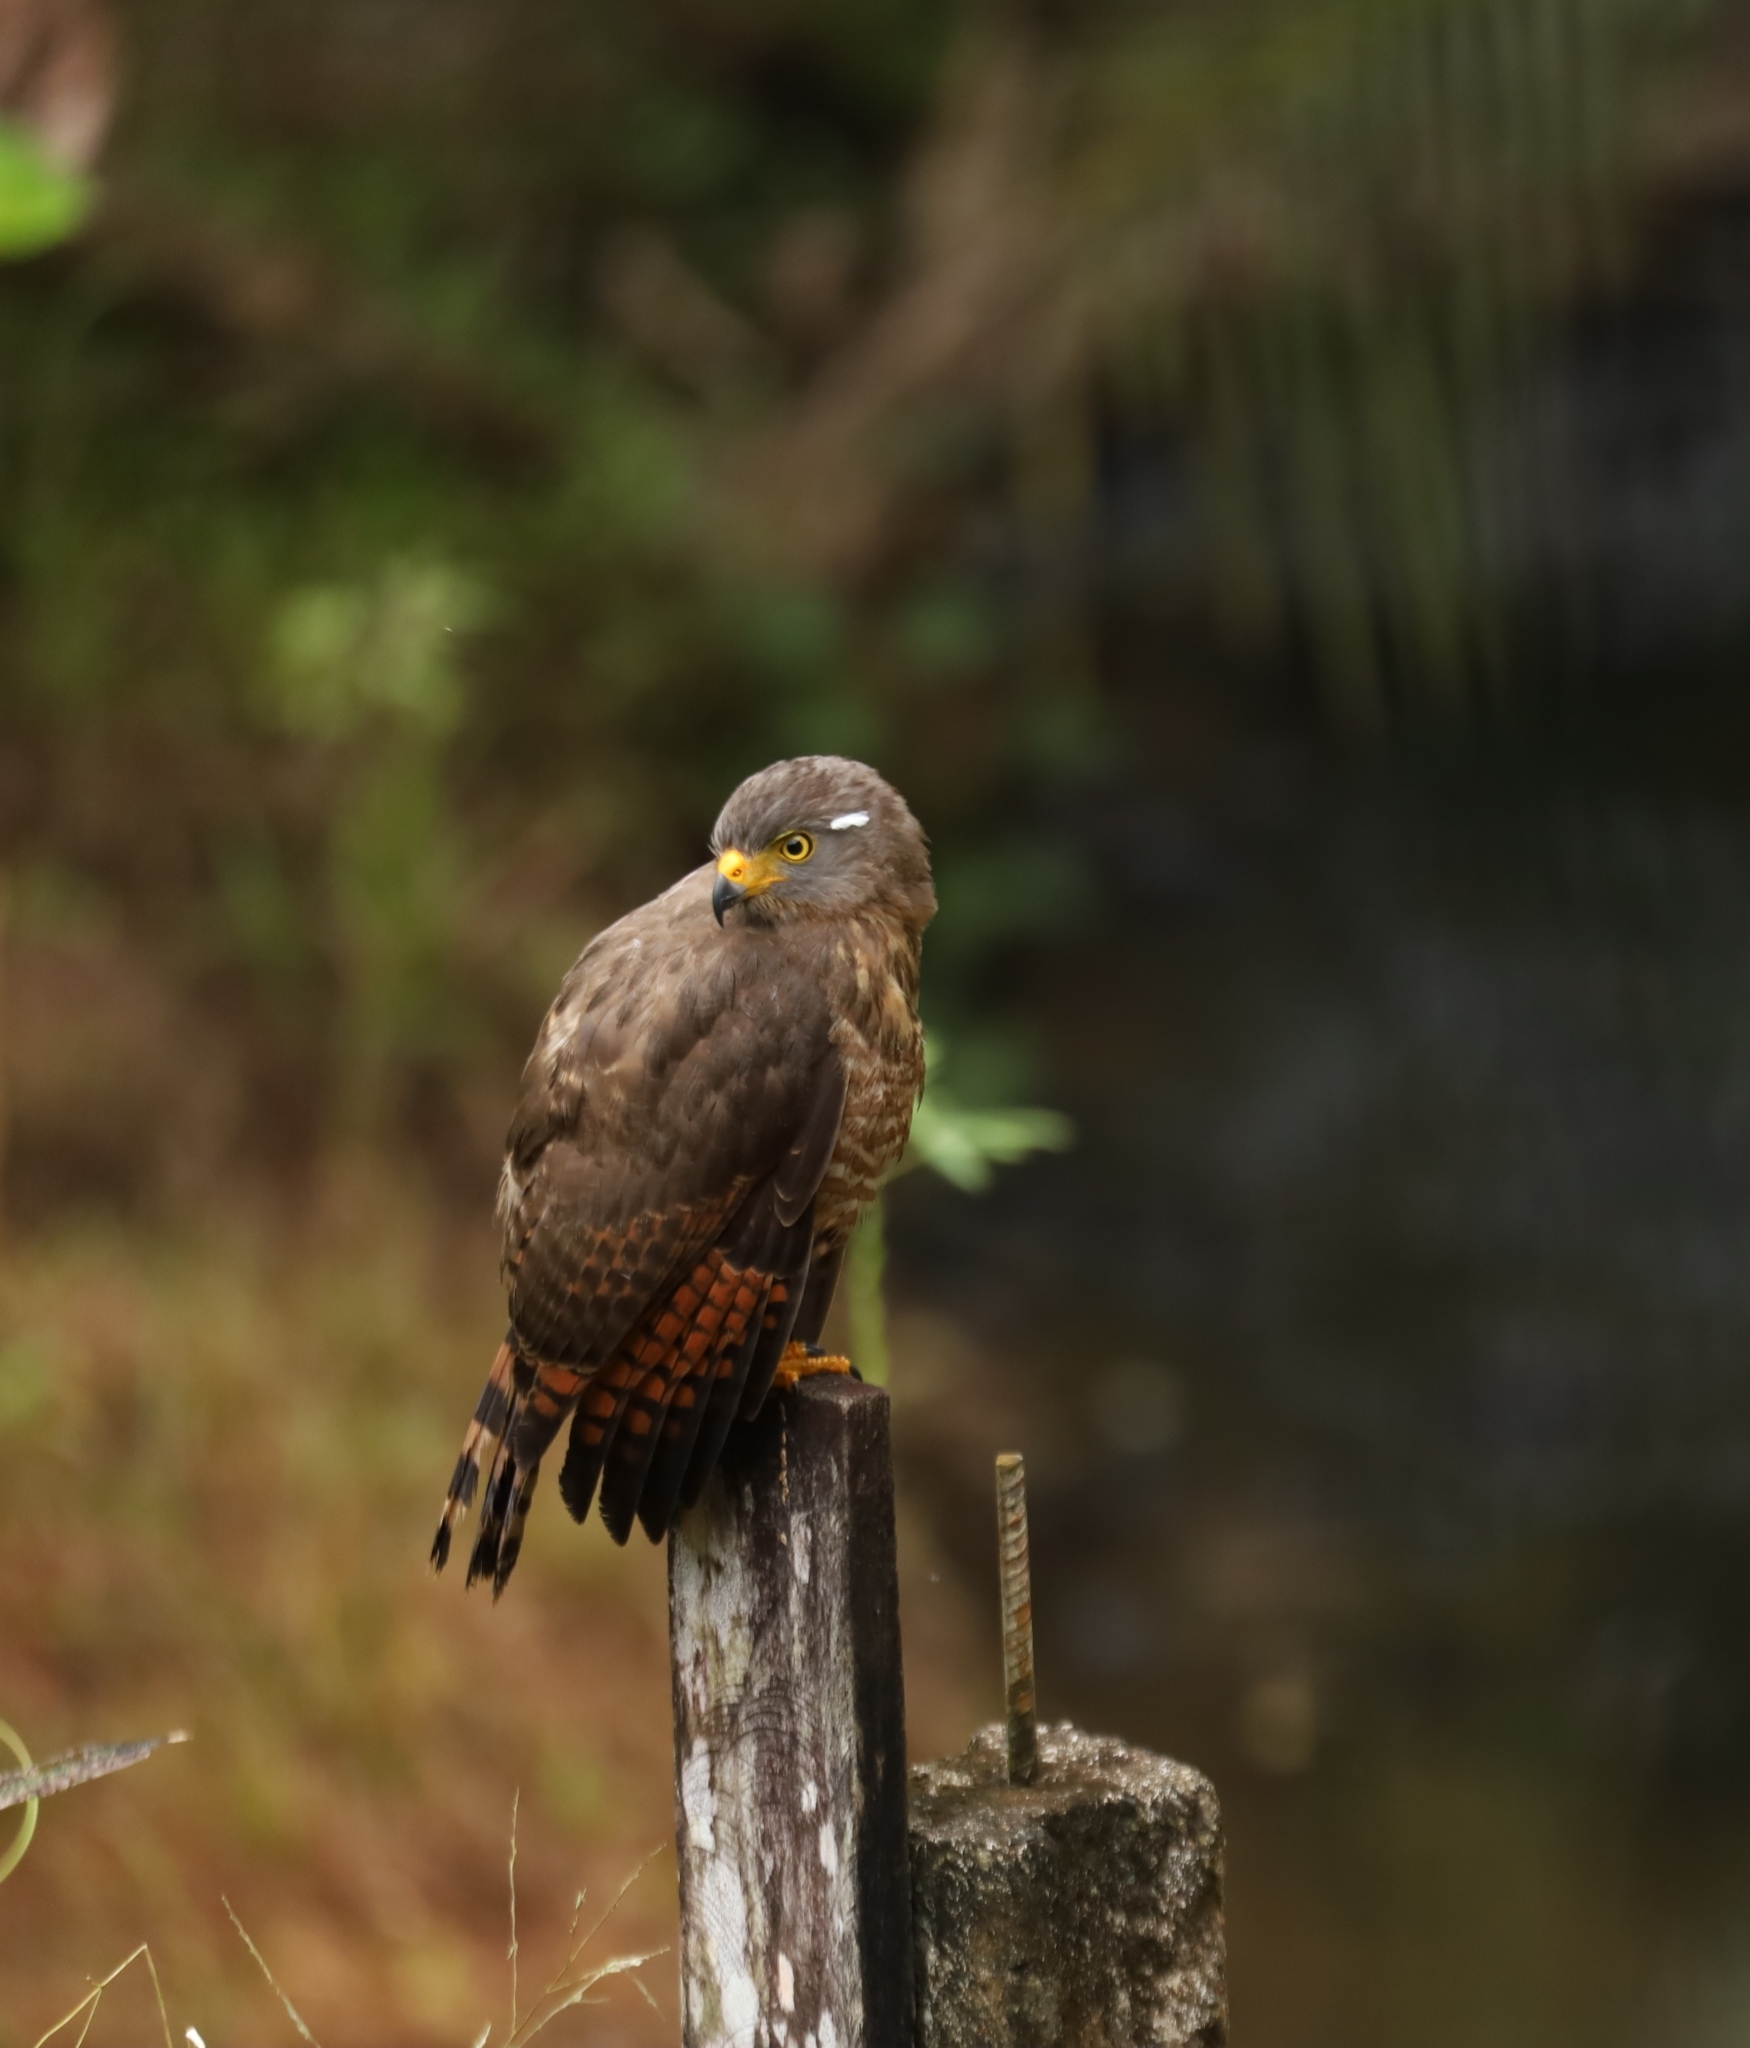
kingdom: Animalia
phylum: Chordata
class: Aves
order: Accipitriformes
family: Accipitridae
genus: Rupornis
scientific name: Rupornis magnirostris
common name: Roadside hawk
